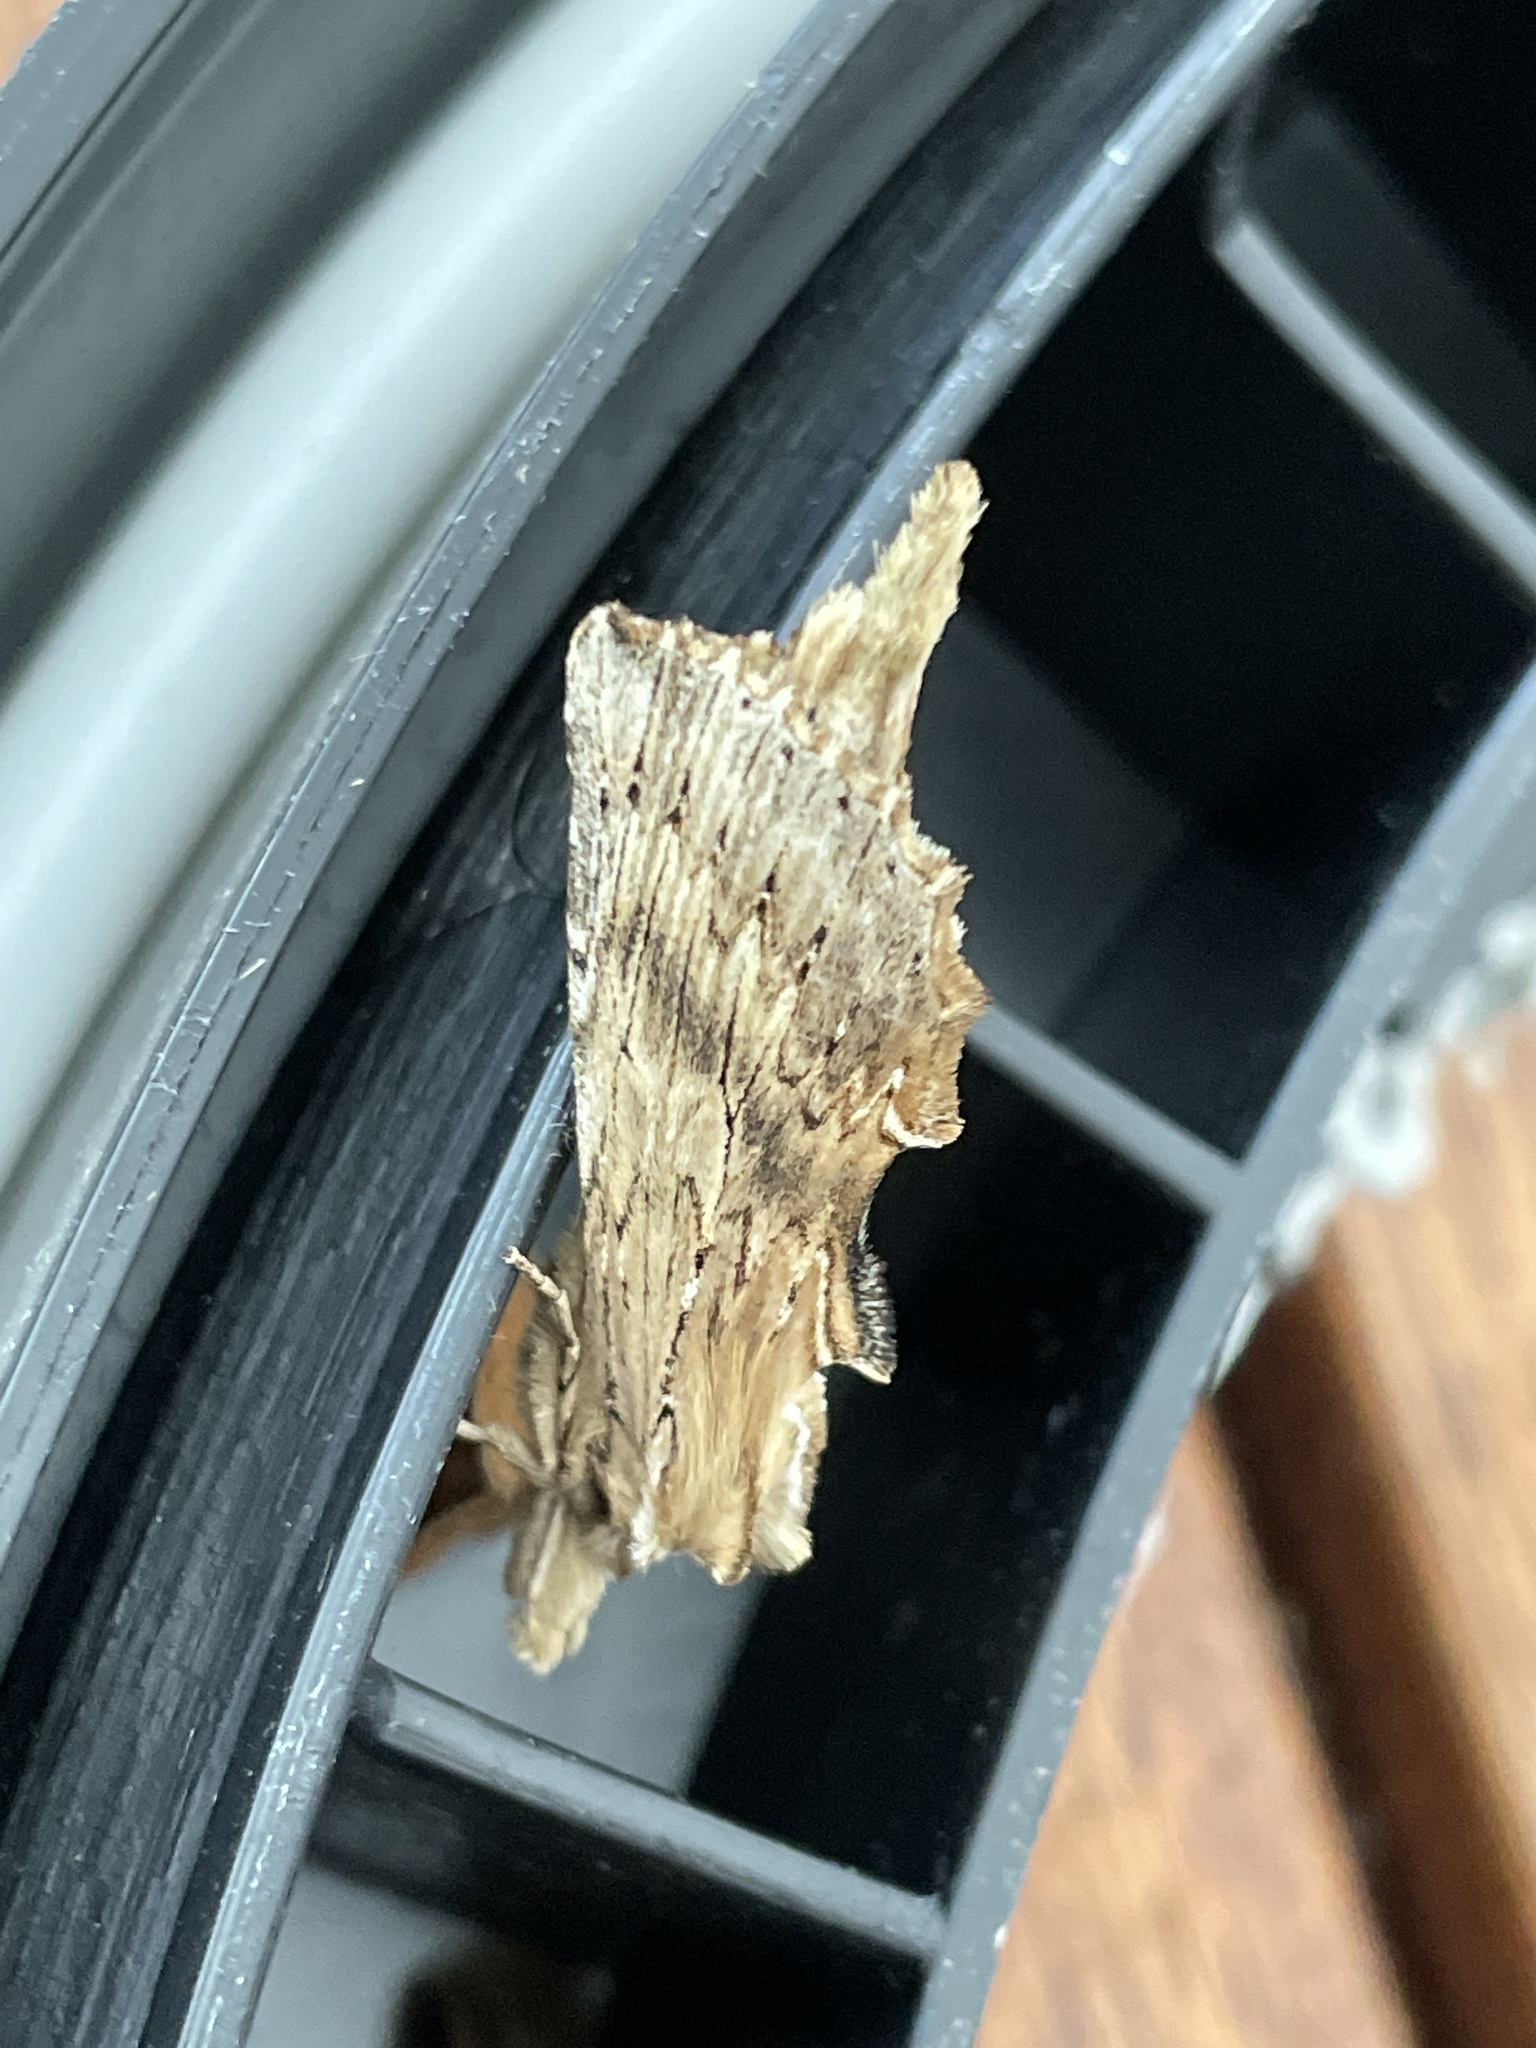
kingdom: Animalia
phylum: Arthropoda
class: Insecta
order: Lepidoptera
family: Notodontidae
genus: Pterostoma
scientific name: Pterostoma palpina
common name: Pale prominent
